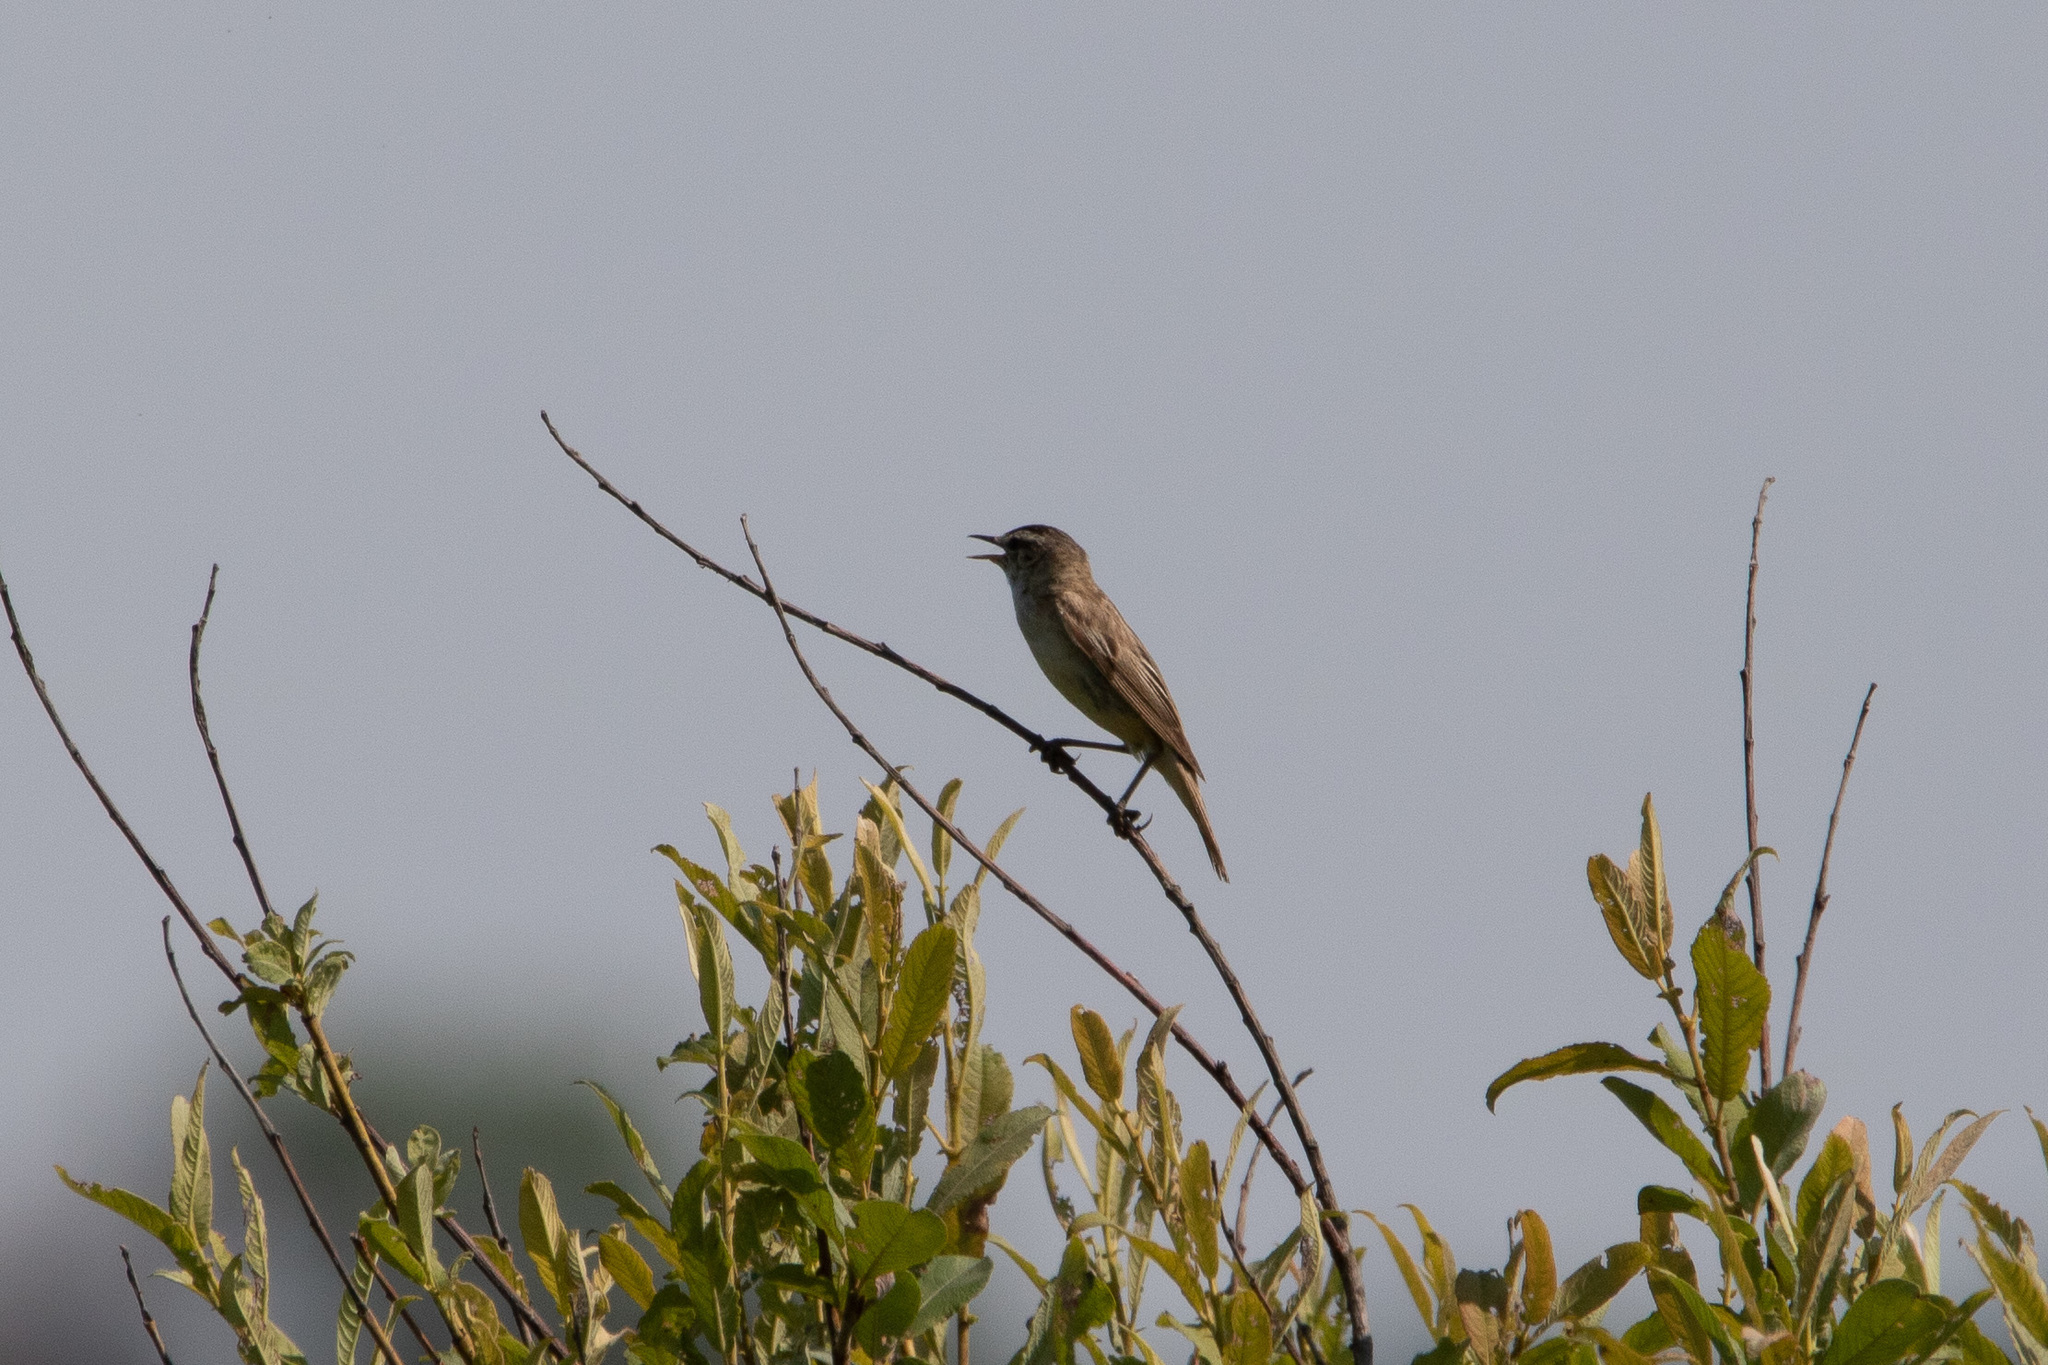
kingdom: Animalia
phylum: Chordata
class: Aves
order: Passeriformes
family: Acrocephalidae
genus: Acrocephalus
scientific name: Acrocephalus schoenobaenus
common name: Sedge warbler
